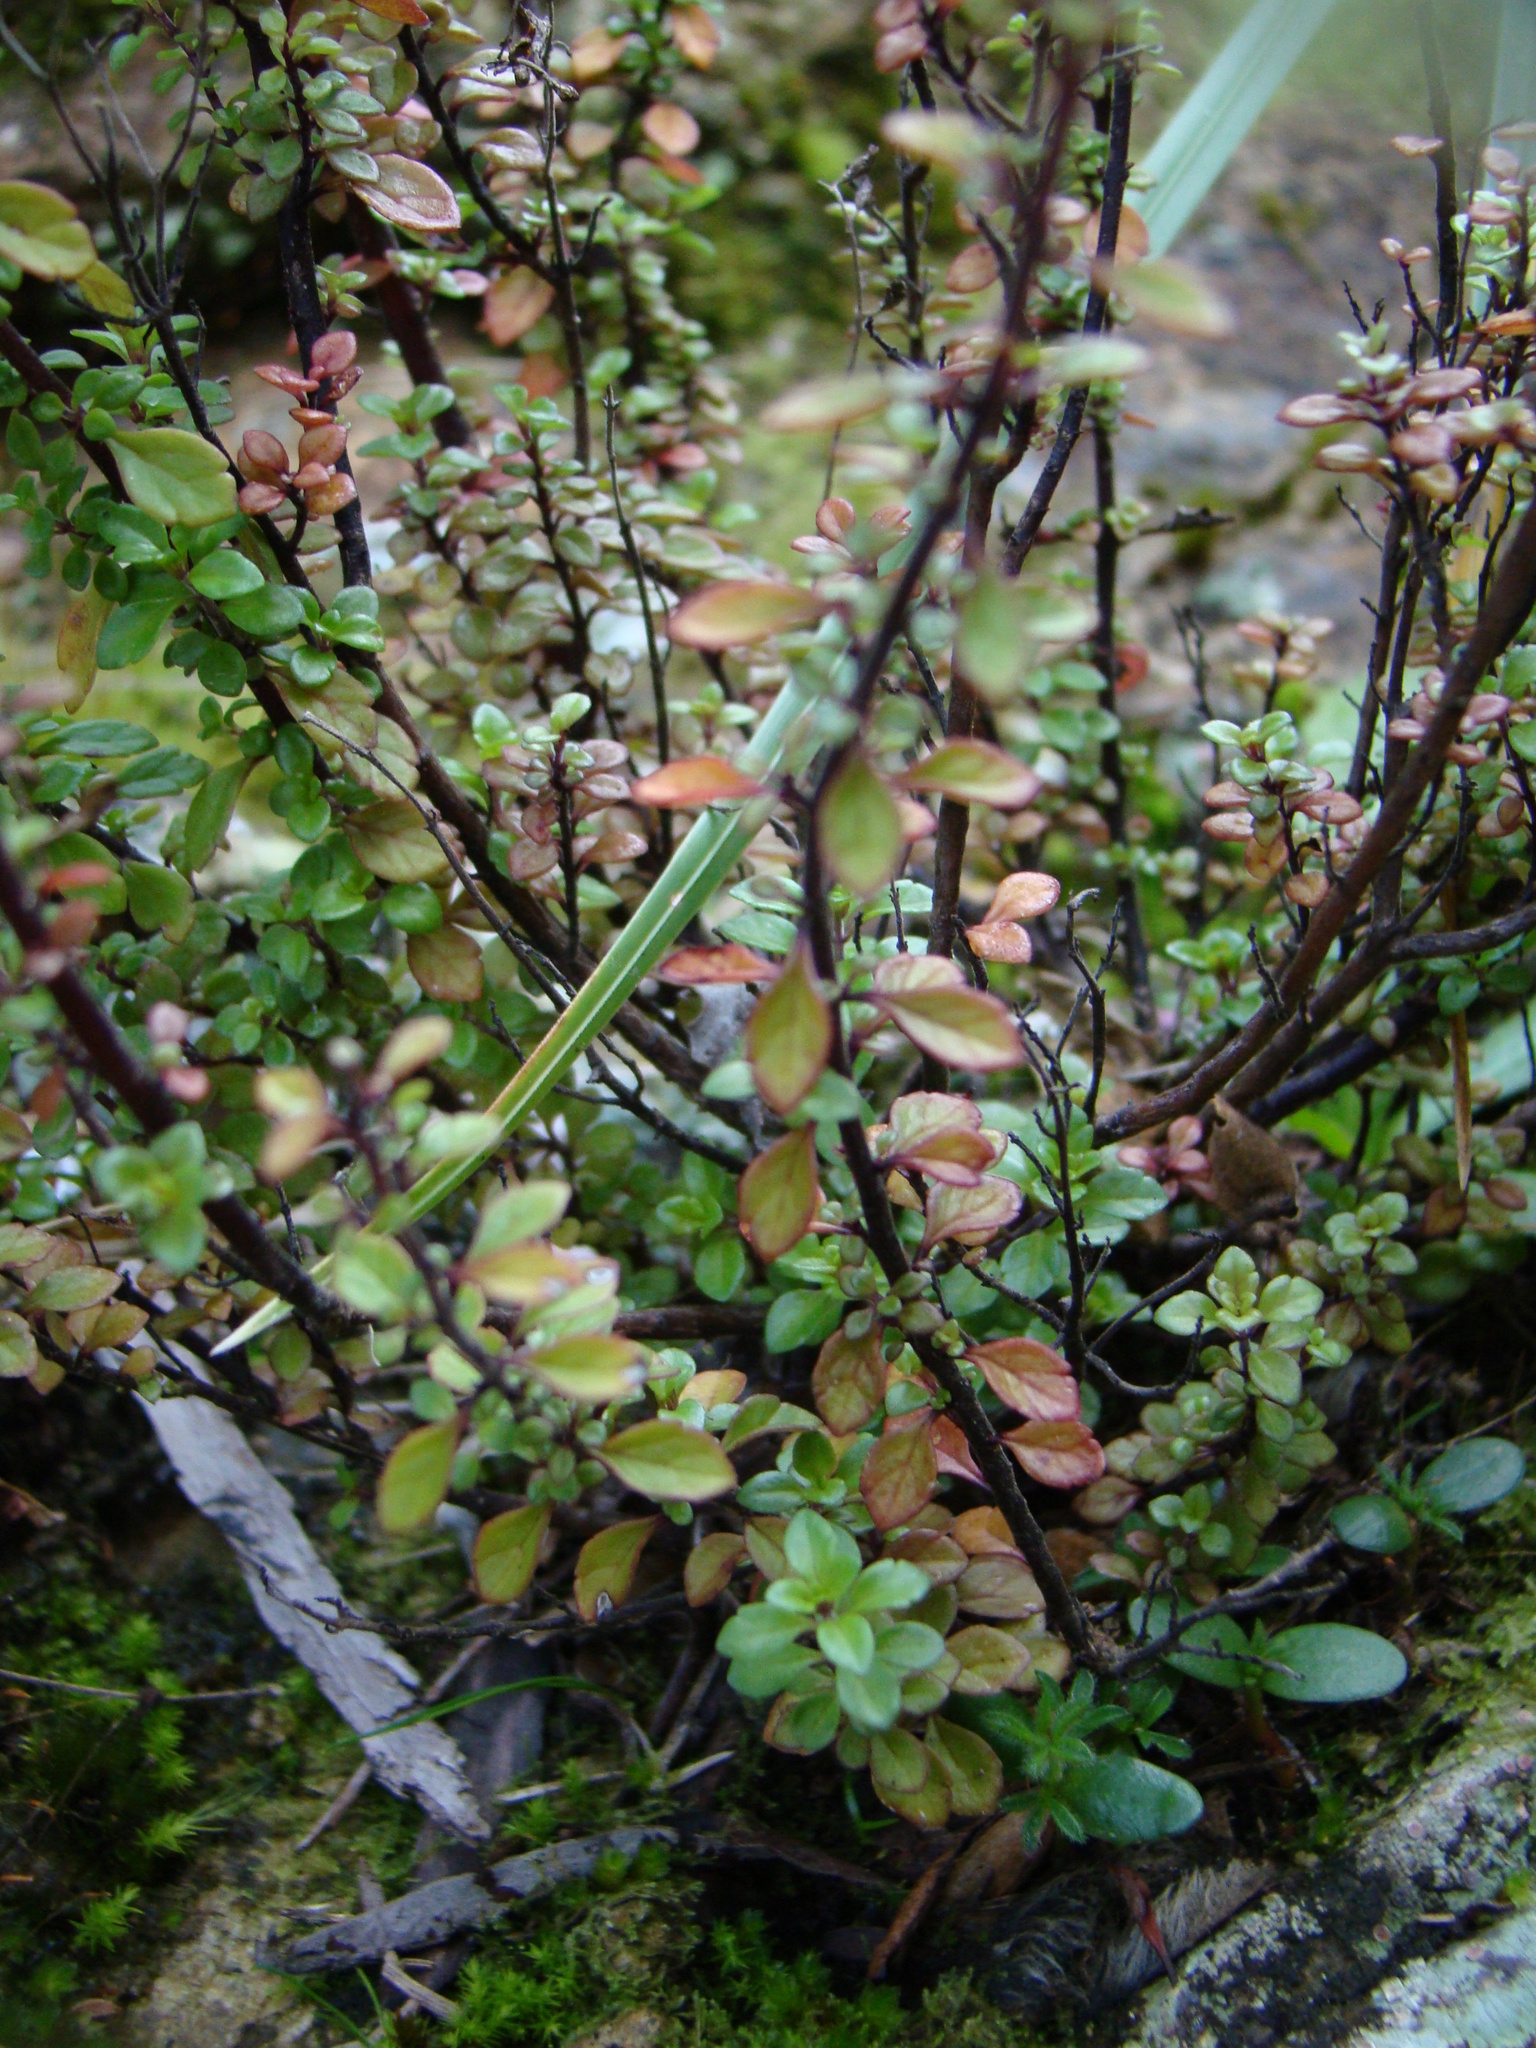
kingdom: Plantae
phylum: Tracheophyta
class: Magnoliopsida
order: Lamiales
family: Orobanchaceae
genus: Euphrasia
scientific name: Euphrasia cuneata
